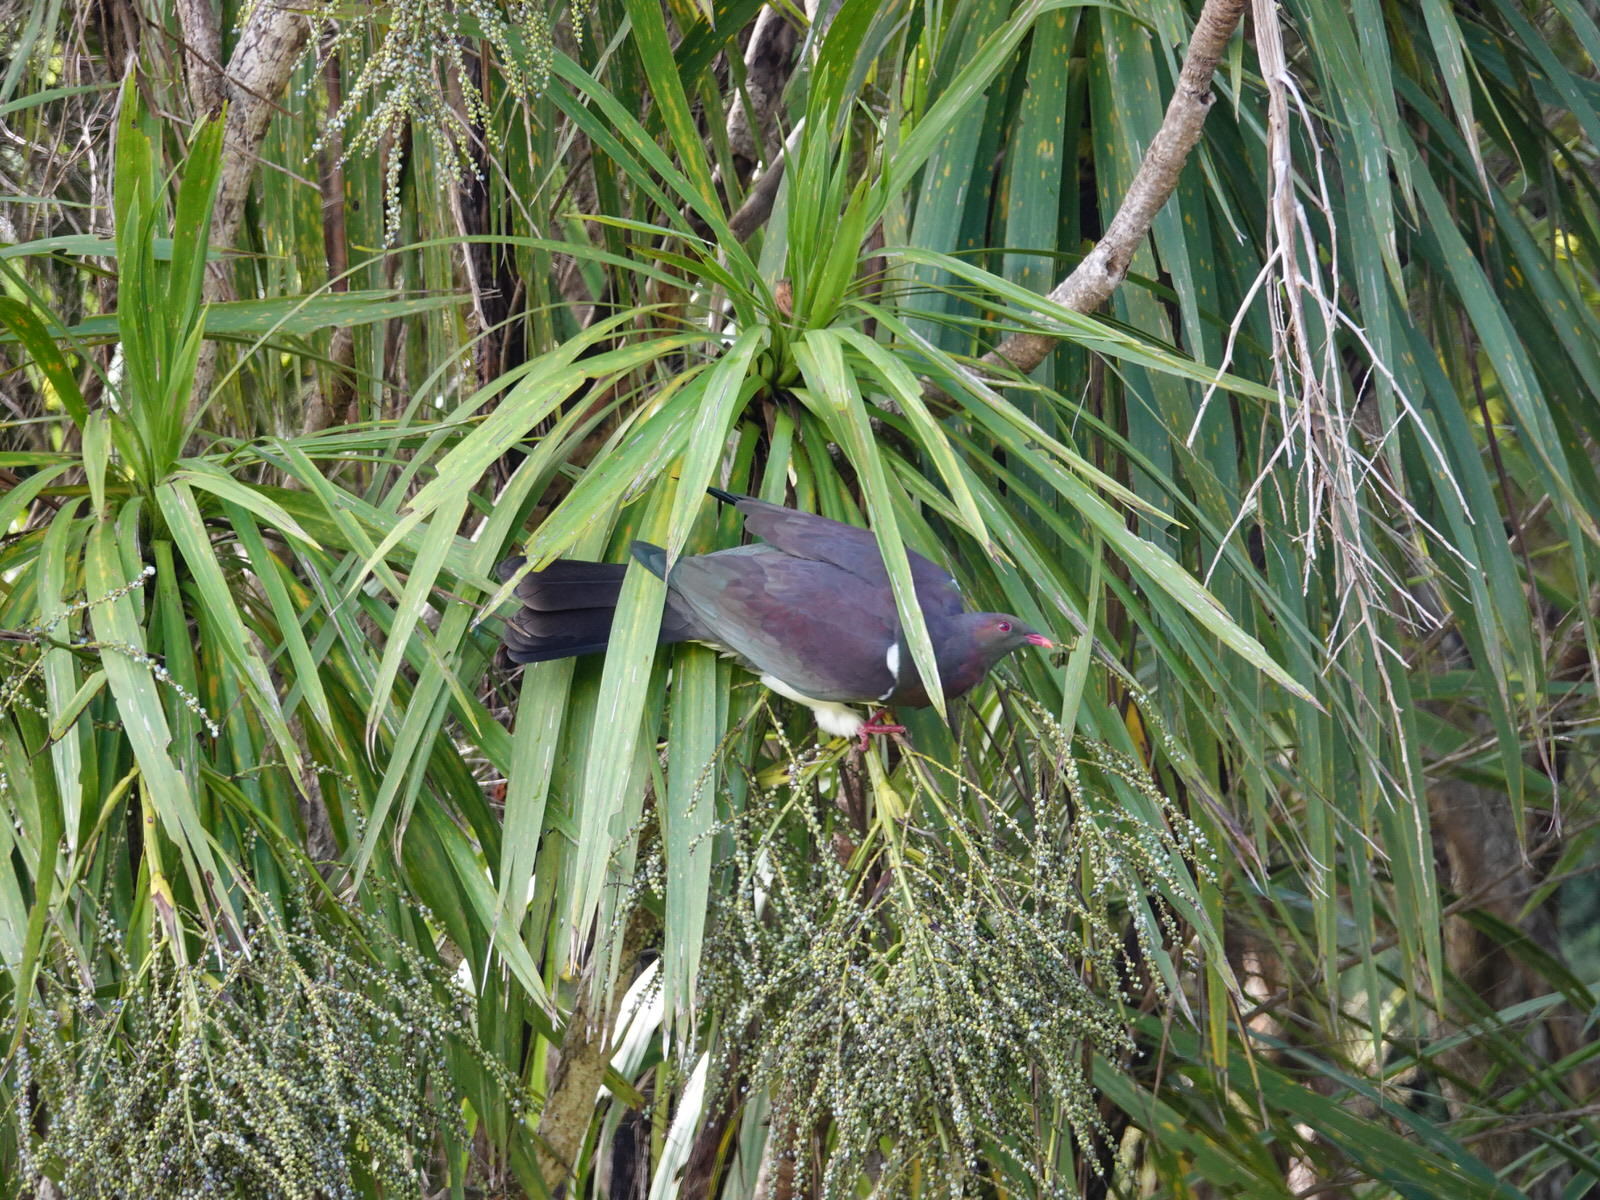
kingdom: Animalia
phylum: Chordata
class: Aves
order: Columbiformes
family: Columbidae
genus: Hemiphaga
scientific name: Hemiphaga novaeseelandiae
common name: New zealand pigeon
